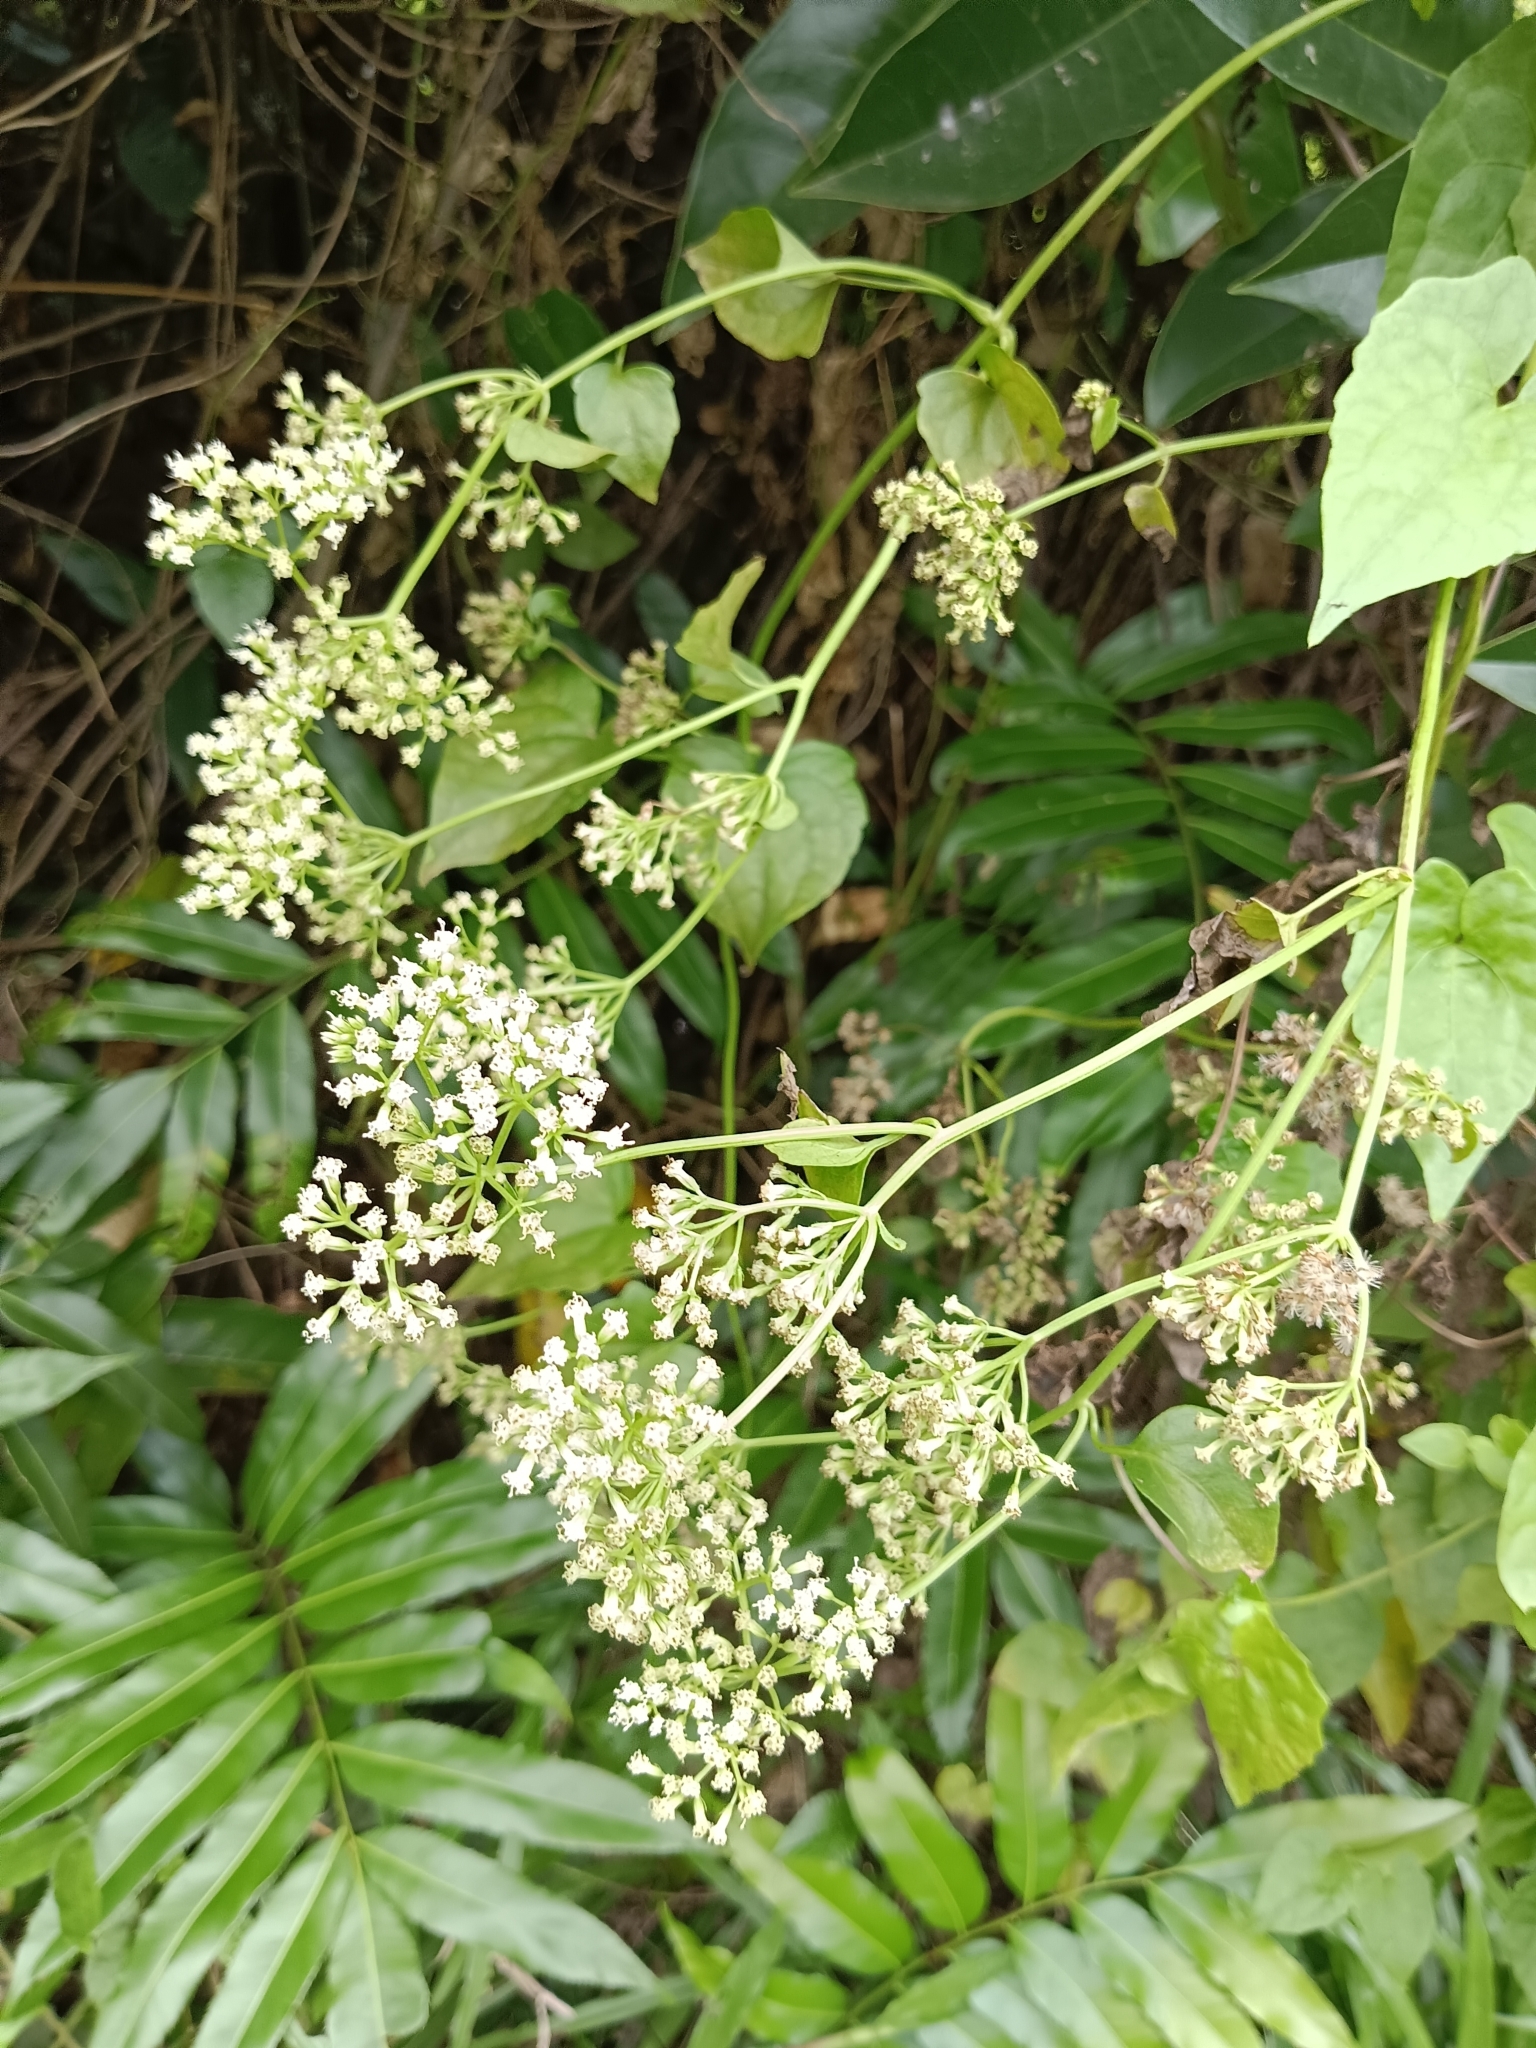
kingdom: Plantae
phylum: Tracheophyta
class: Magnoliopsida
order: Asterales
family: Asteraceae
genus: Mikania
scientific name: Mikania micrantha
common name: Mile-a-minute
